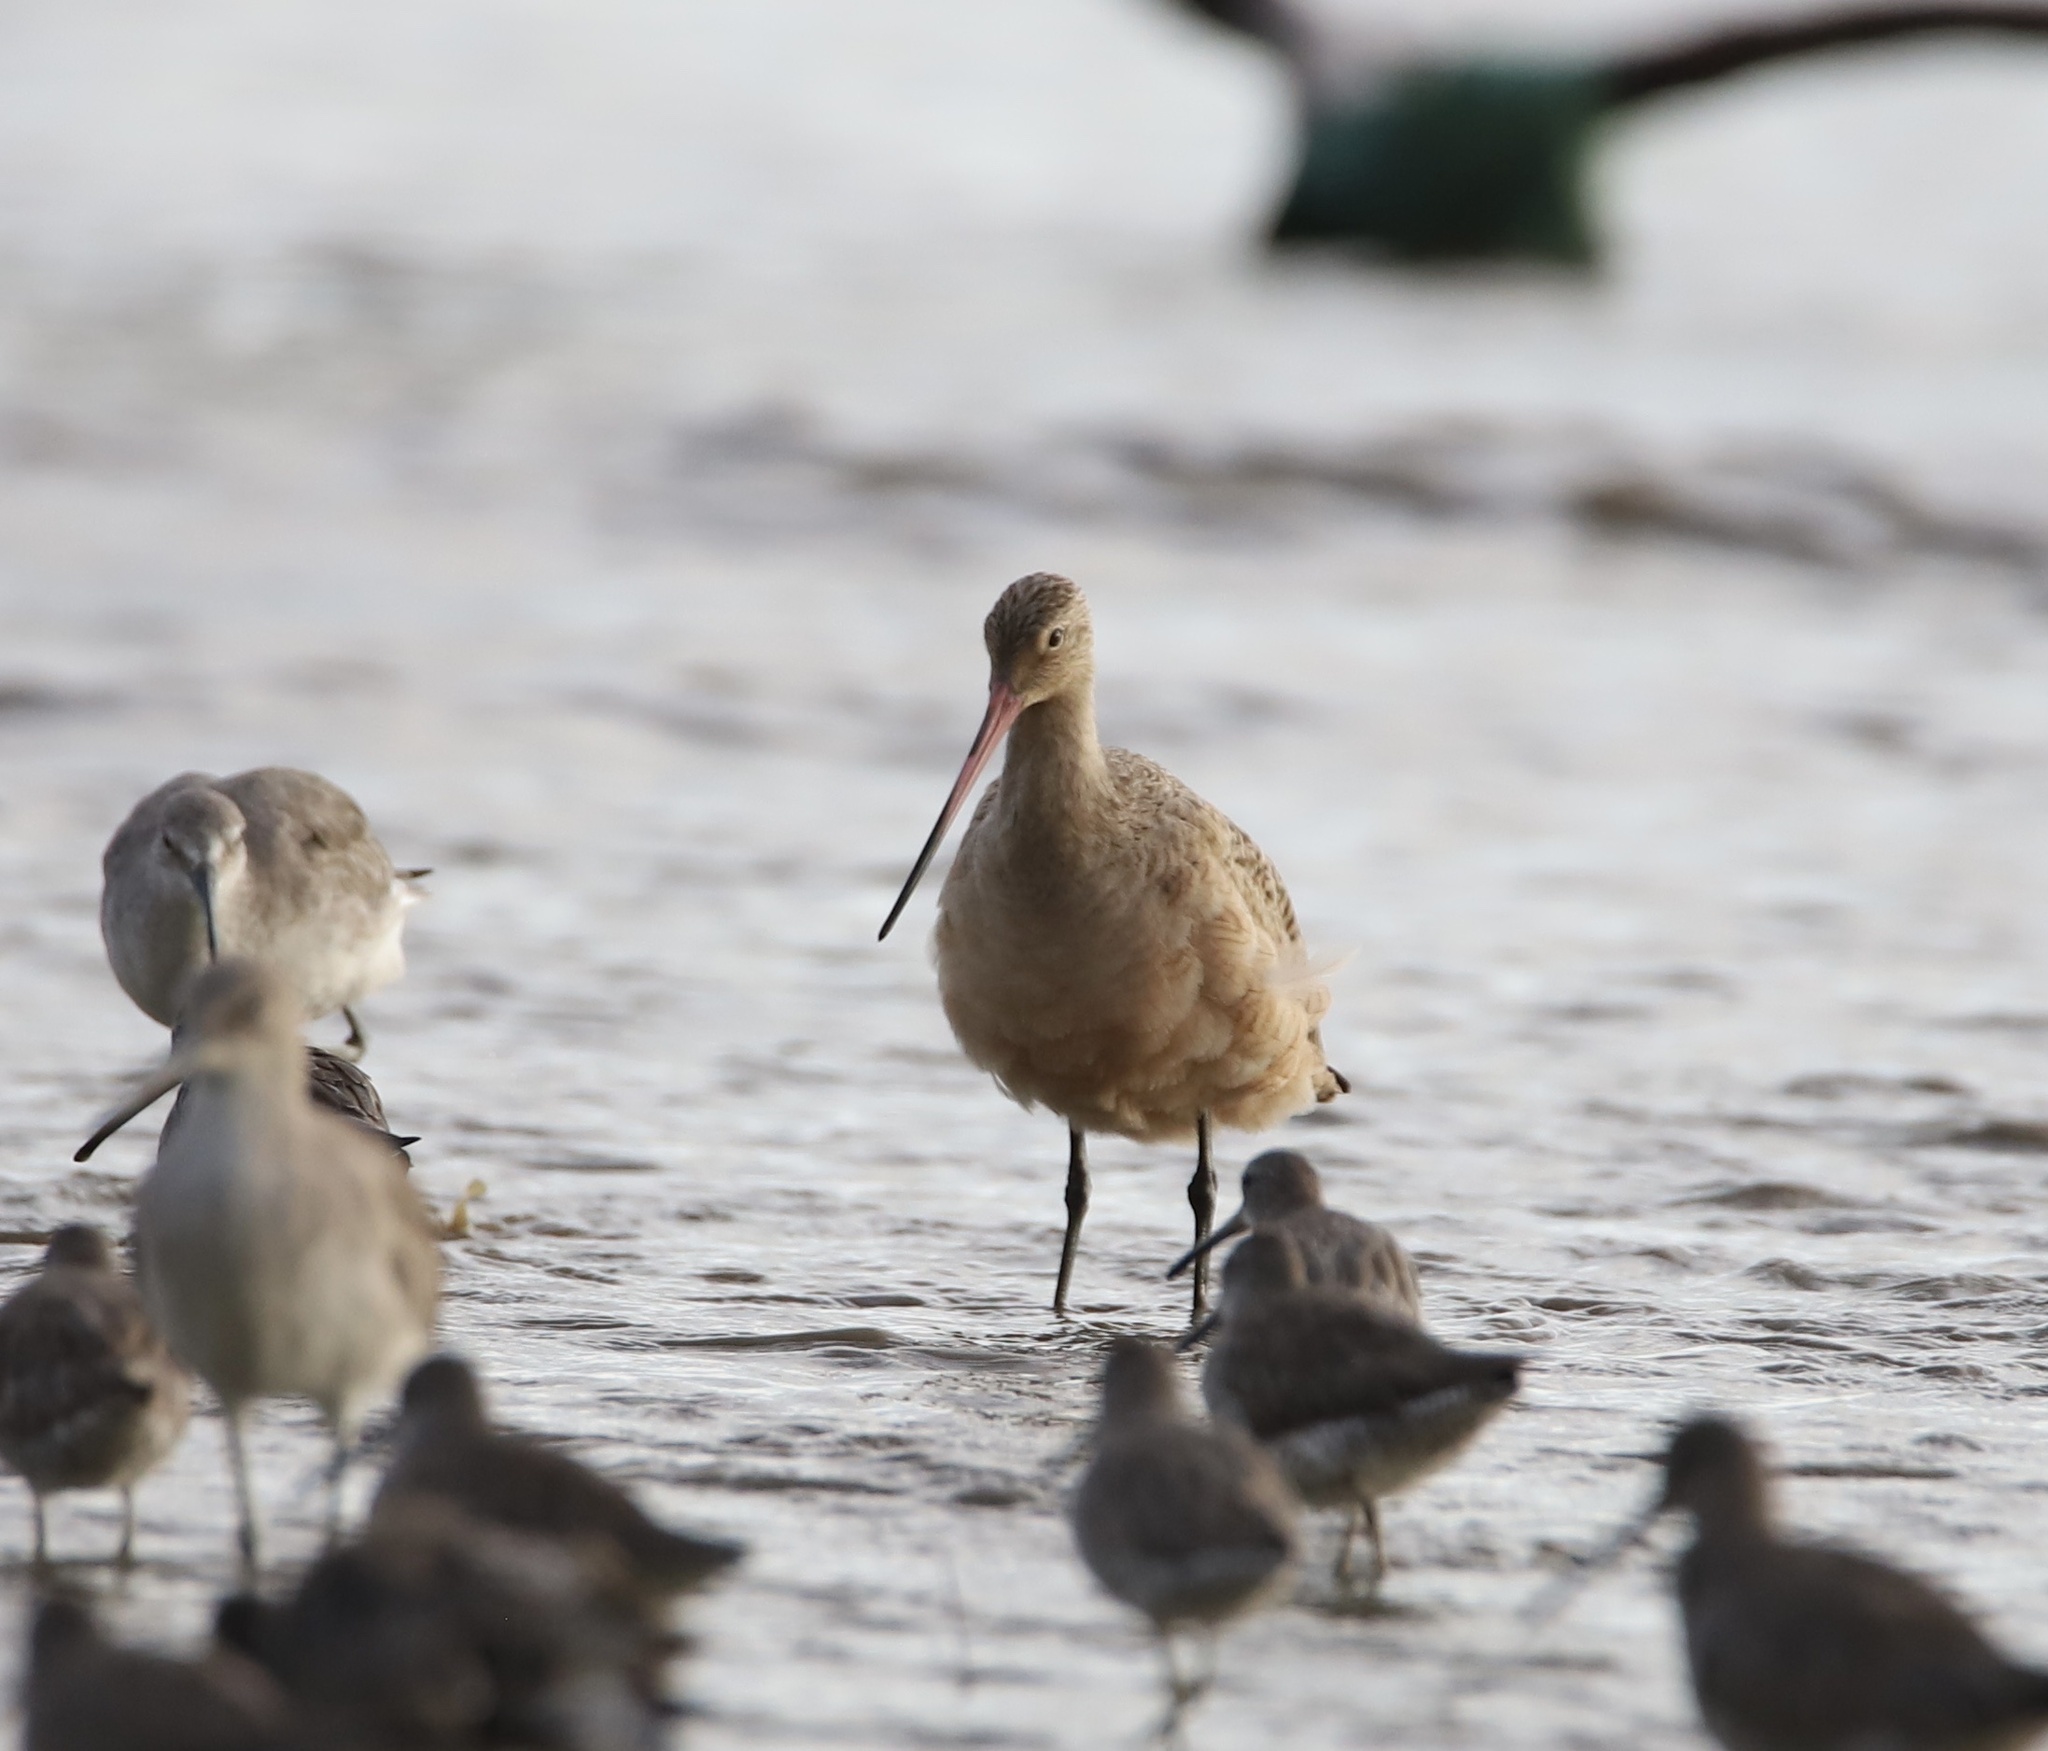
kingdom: Animalia
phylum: Chordata
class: Aves
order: Charadriiformes
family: Scolopacidae
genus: Limosa
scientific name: Limosa fedoa
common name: Marbled godwit
